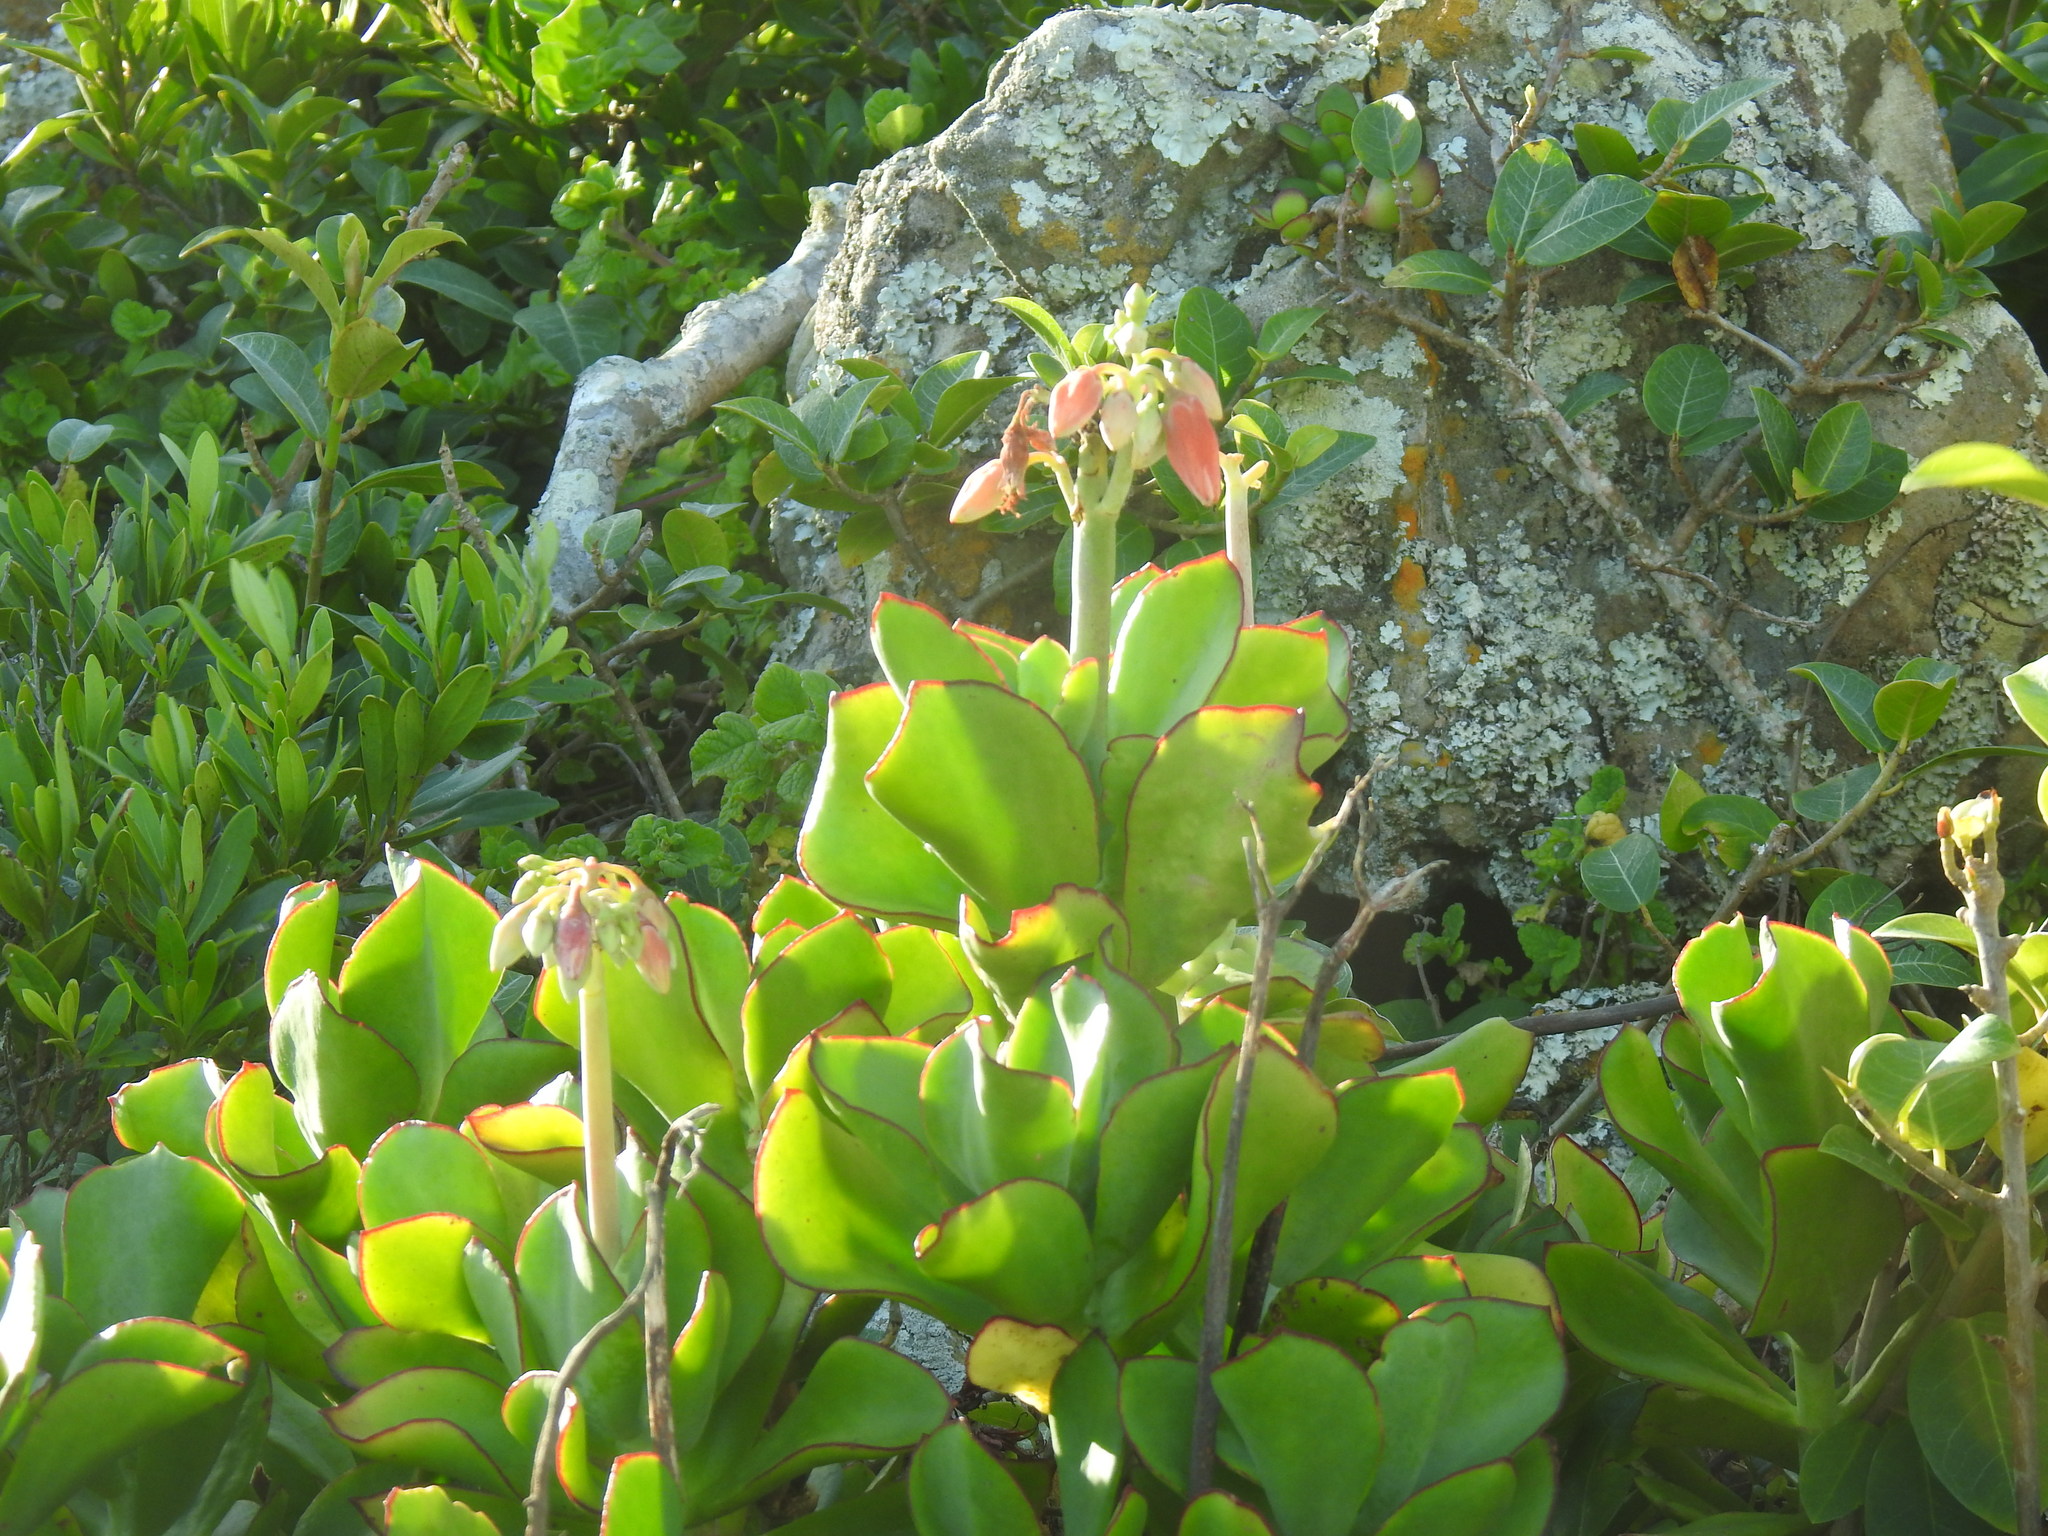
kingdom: Plantae
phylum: Tracheophyta
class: Magnoliopsida
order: Saxifragales
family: Crassulaceae
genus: Cotyledon
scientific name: Cotyledon orbiculata
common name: Pig's ear
